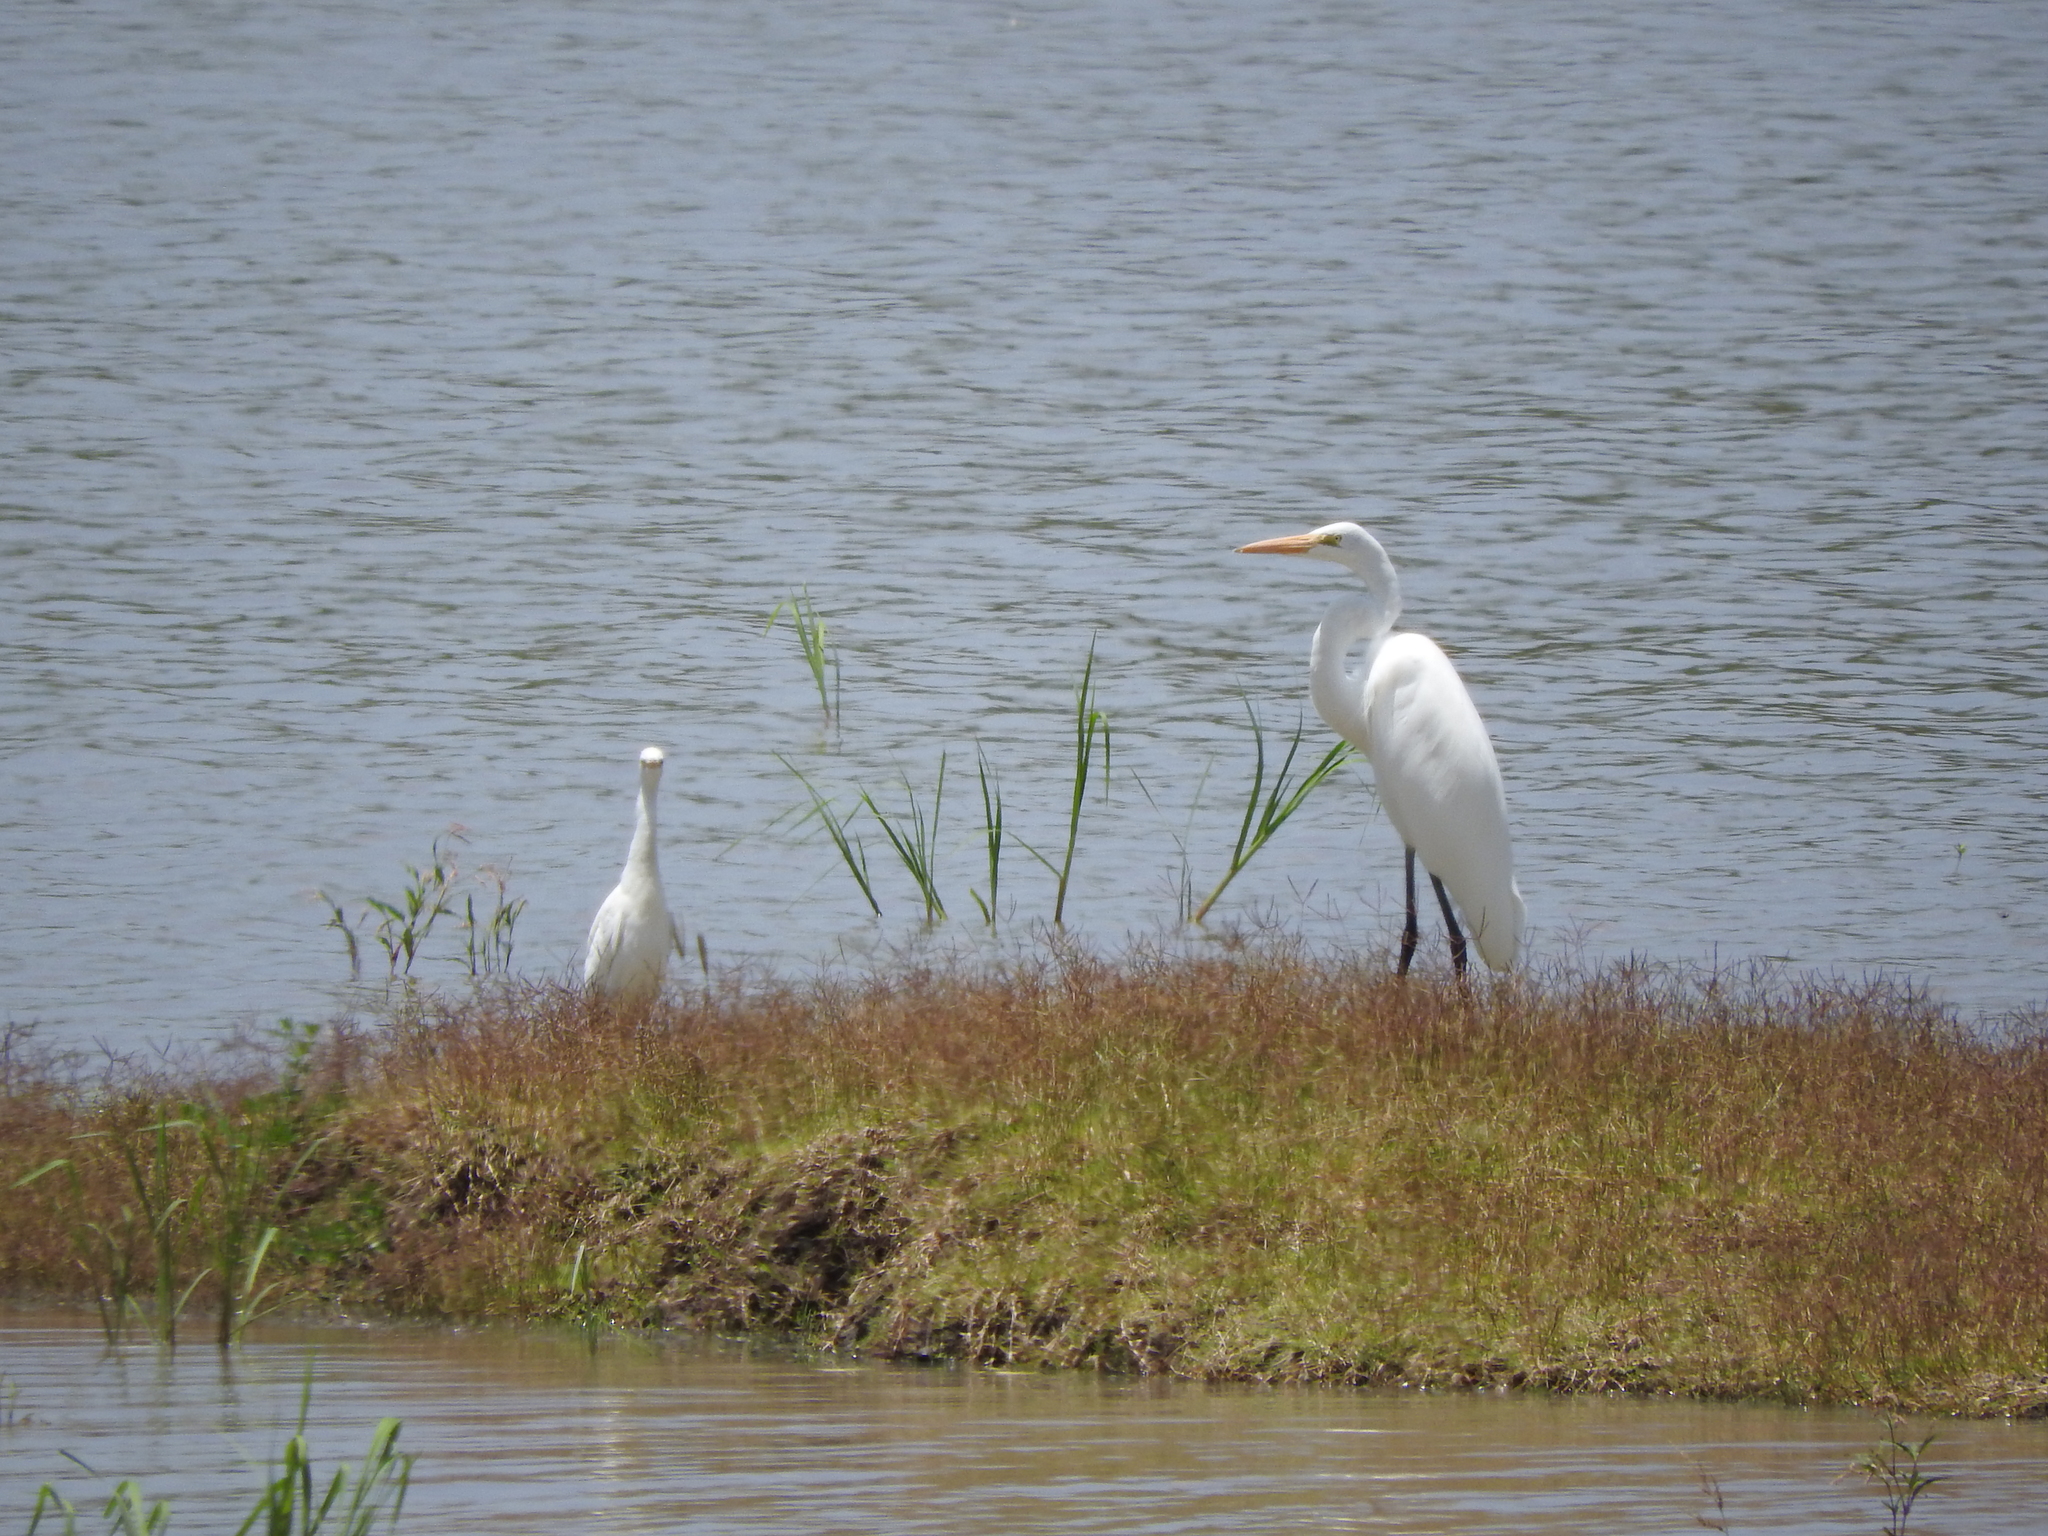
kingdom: Animalia
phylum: Chordata
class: Aves
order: Pelecaniformes
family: Ardeidae
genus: Ardea
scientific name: Ardea alba
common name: Great egret
